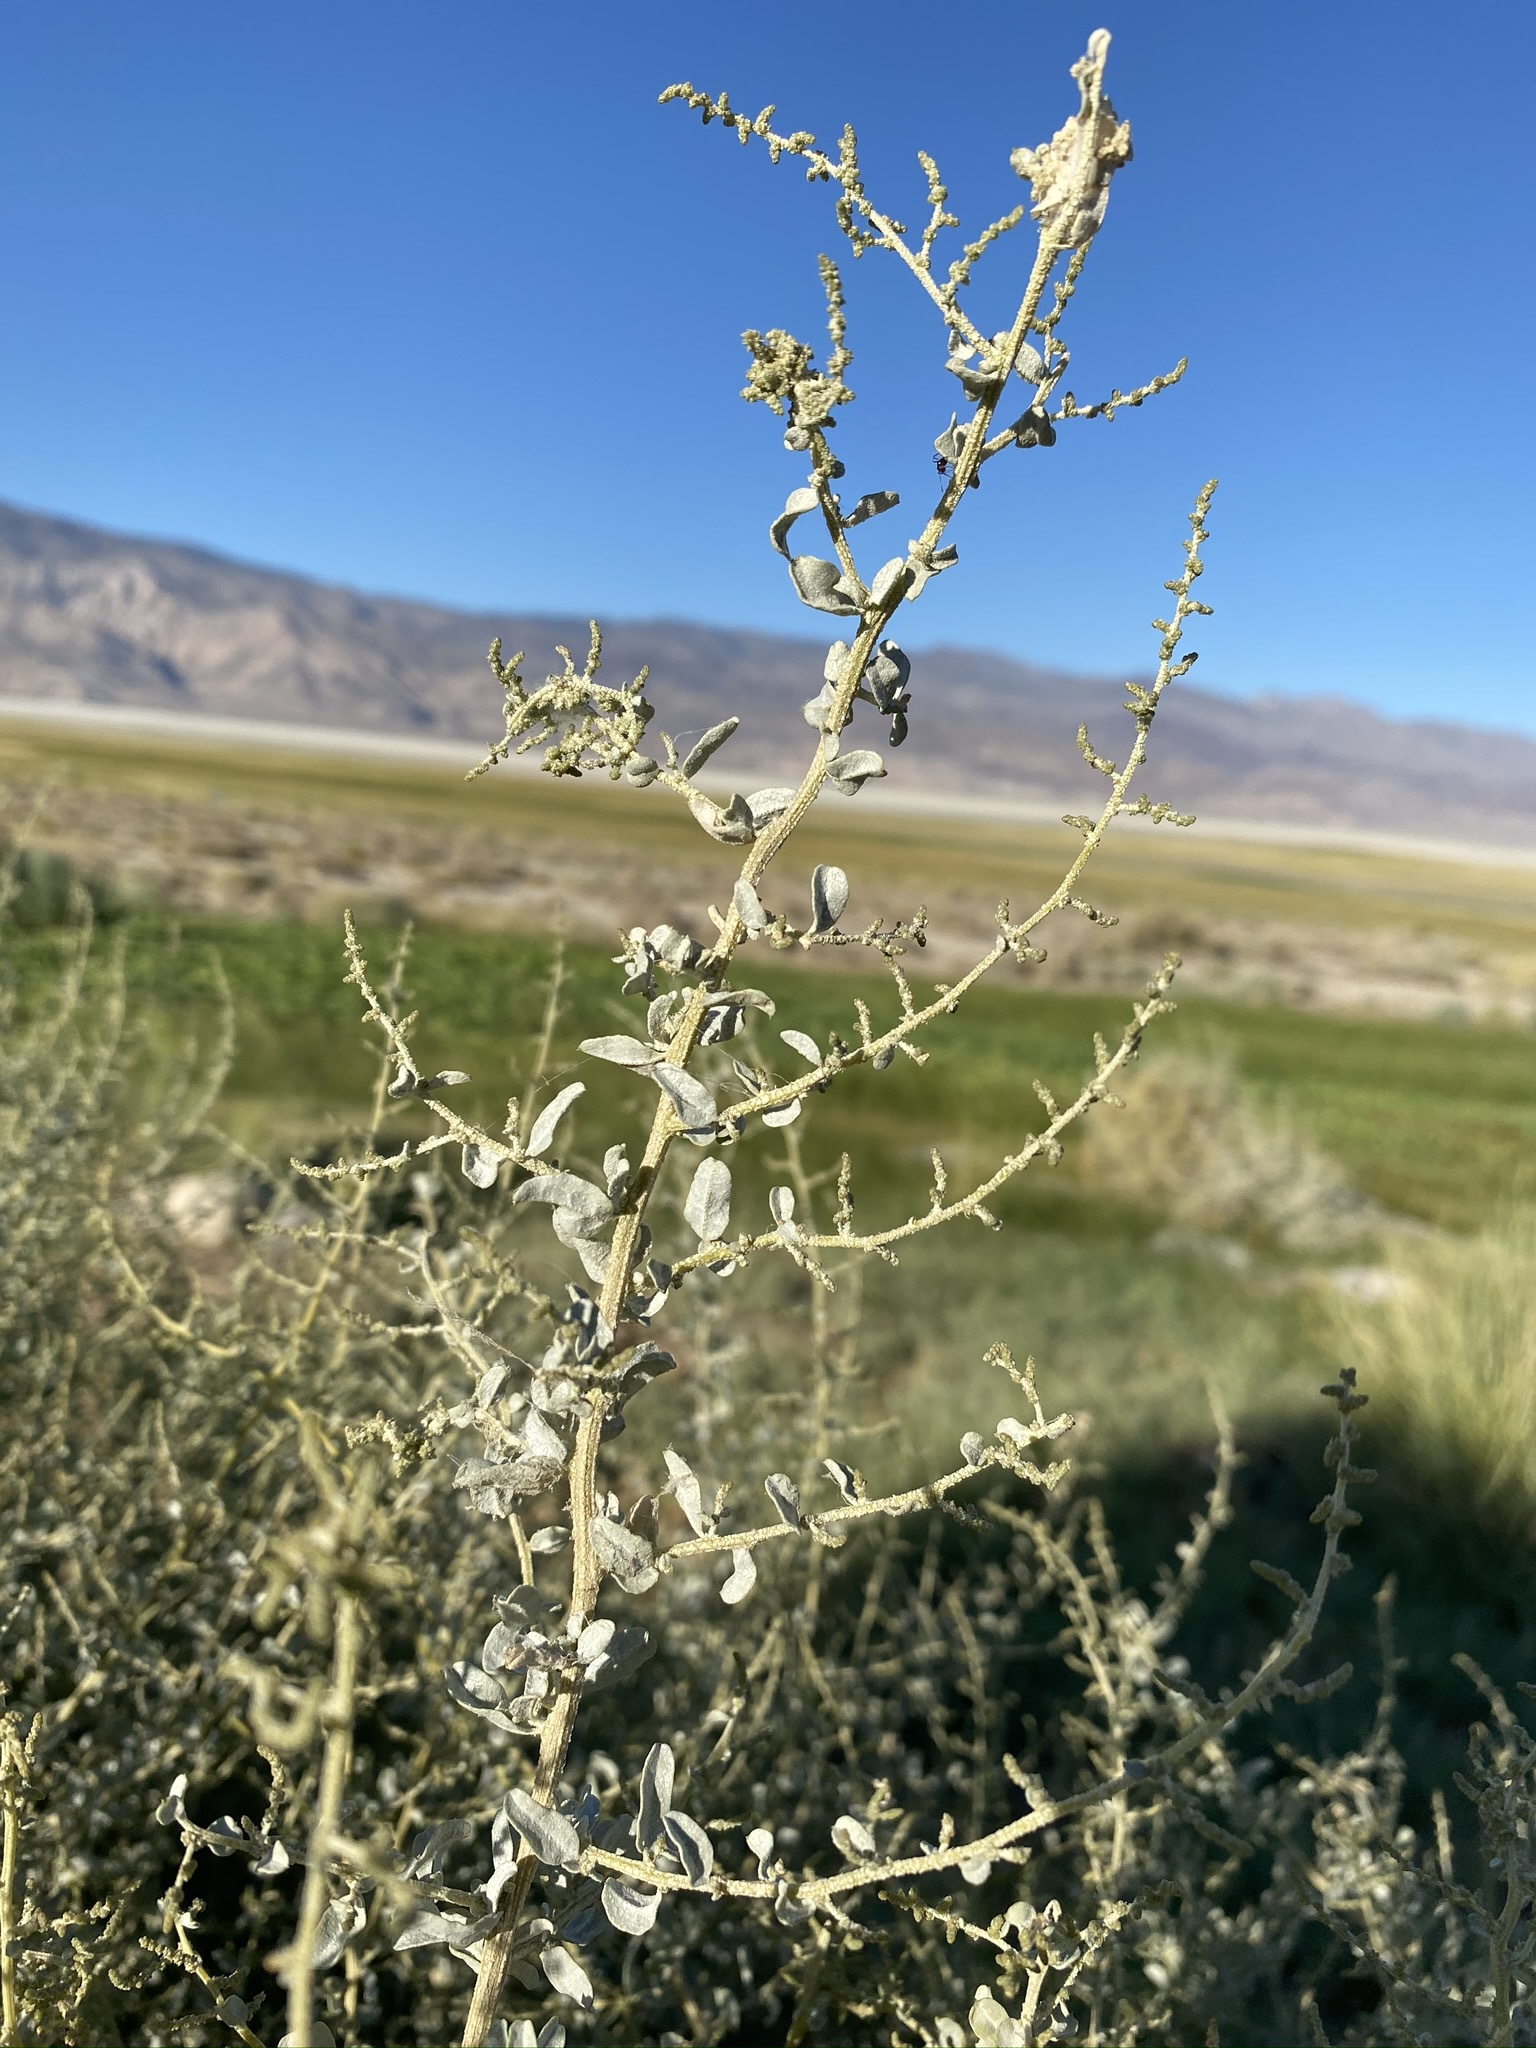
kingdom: Plantae
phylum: Tracheophyta
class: Magnoliopsida
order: Caryophyllales
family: Amaranthaceae
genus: Atriplex
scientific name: Atriplex torreyi
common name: Torrey's saltbush
